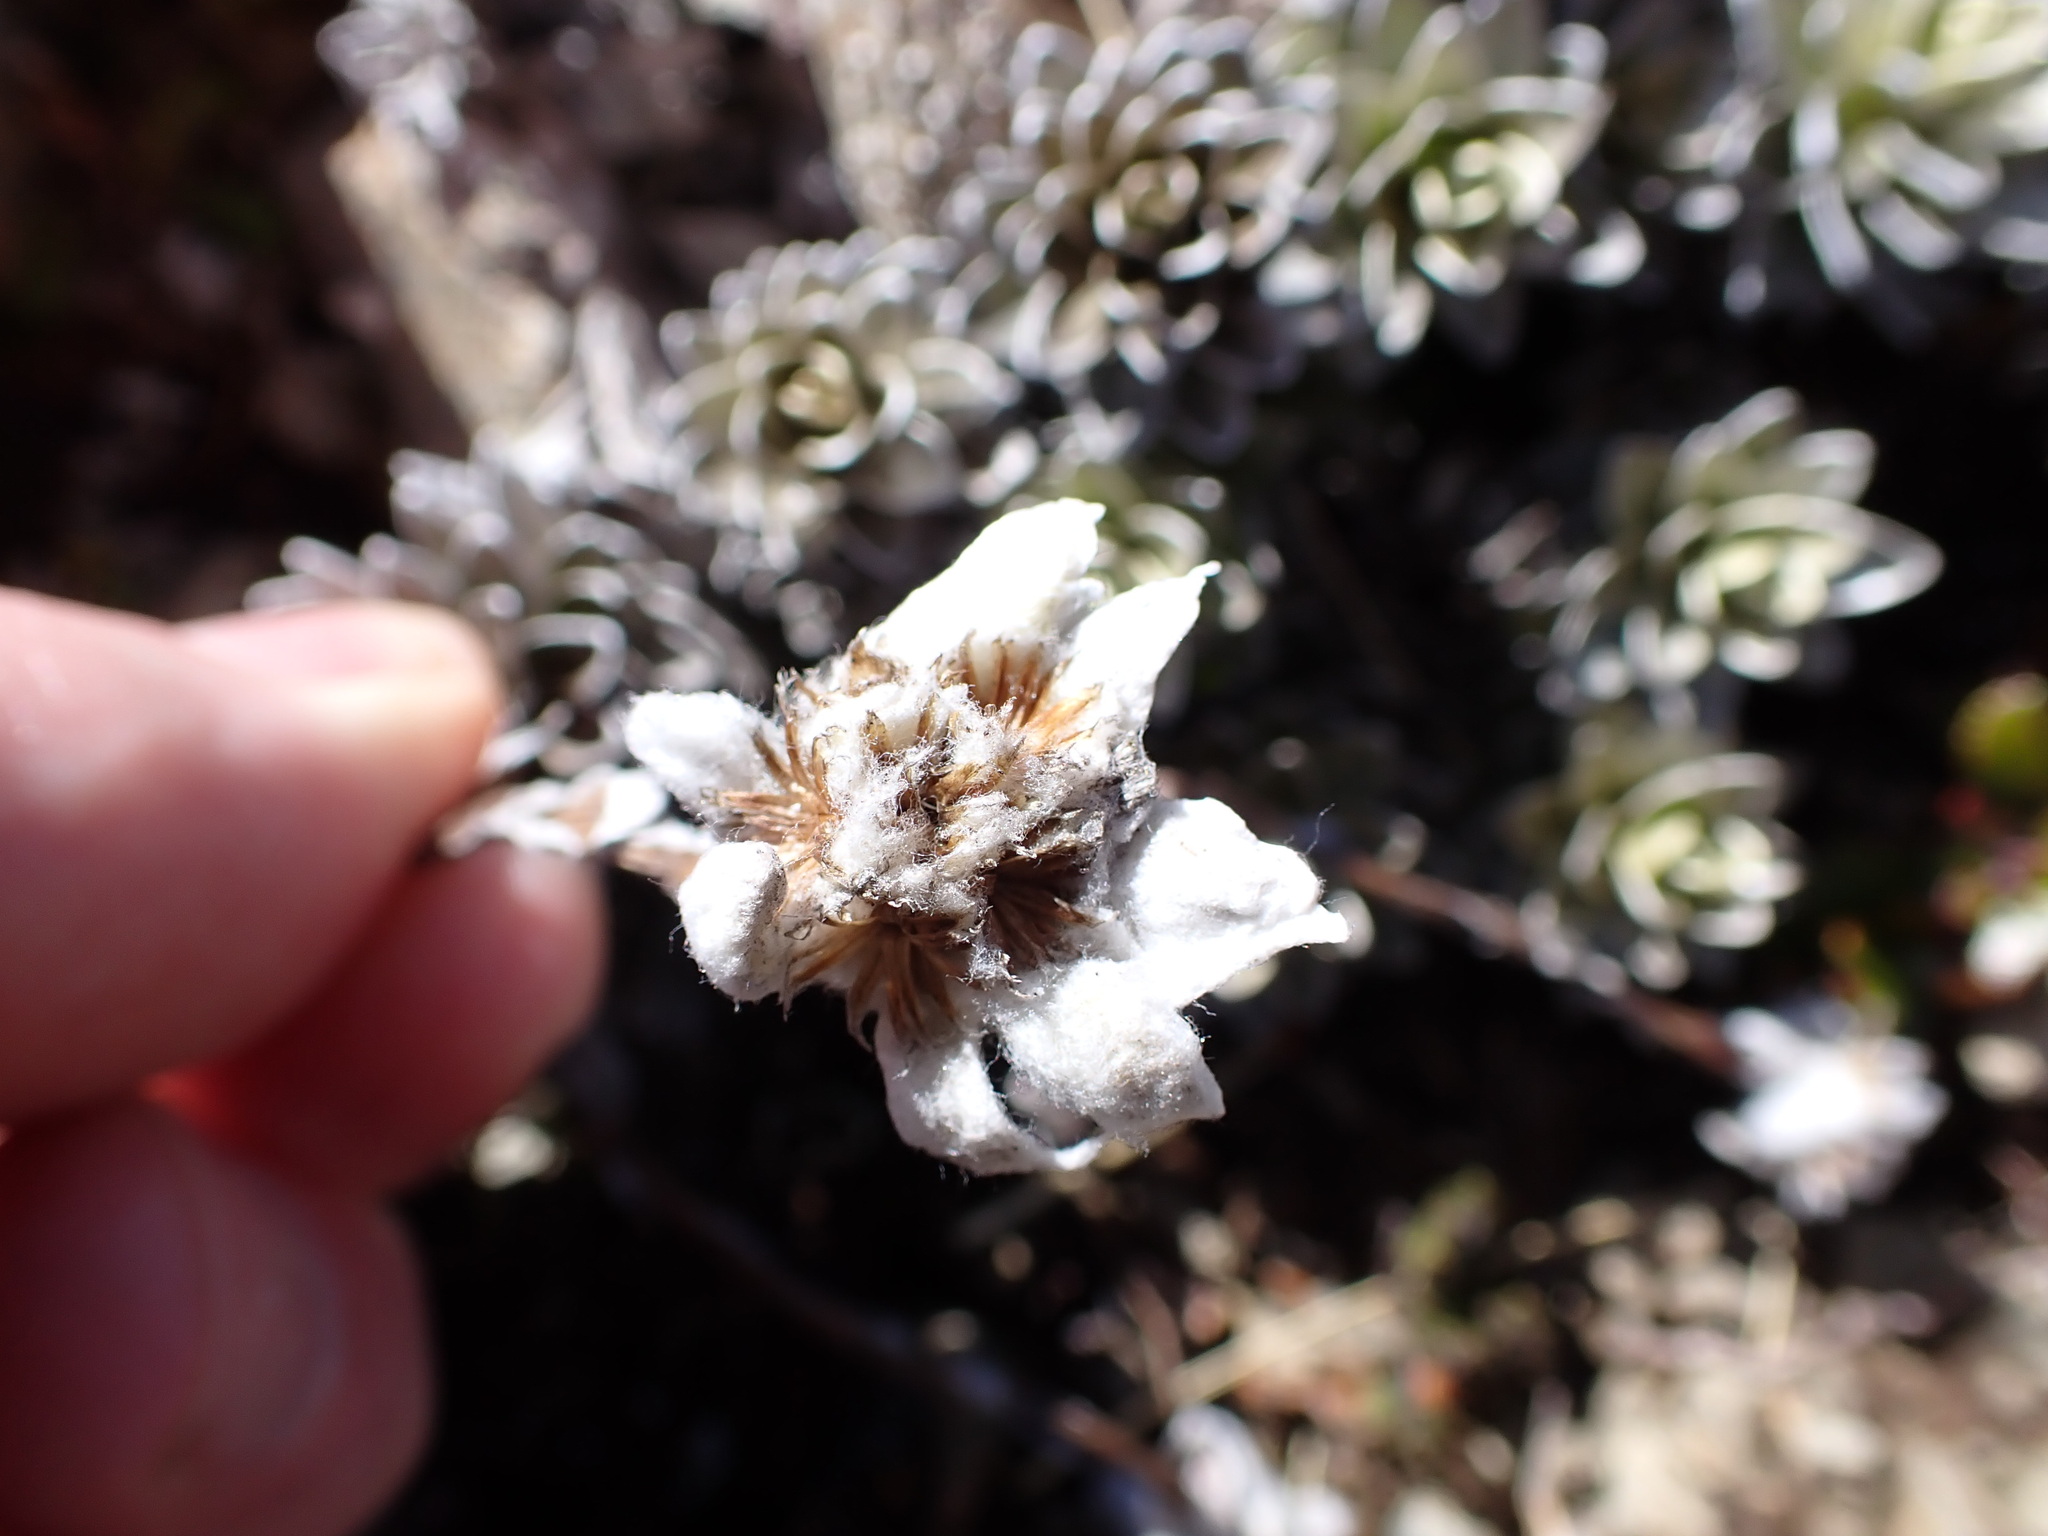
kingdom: Plantae
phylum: Tracheophyta
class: Magnoliopsida
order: Asterales
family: Asteraceae
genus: Leucogenes
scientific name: Leucogenes leontopodium
